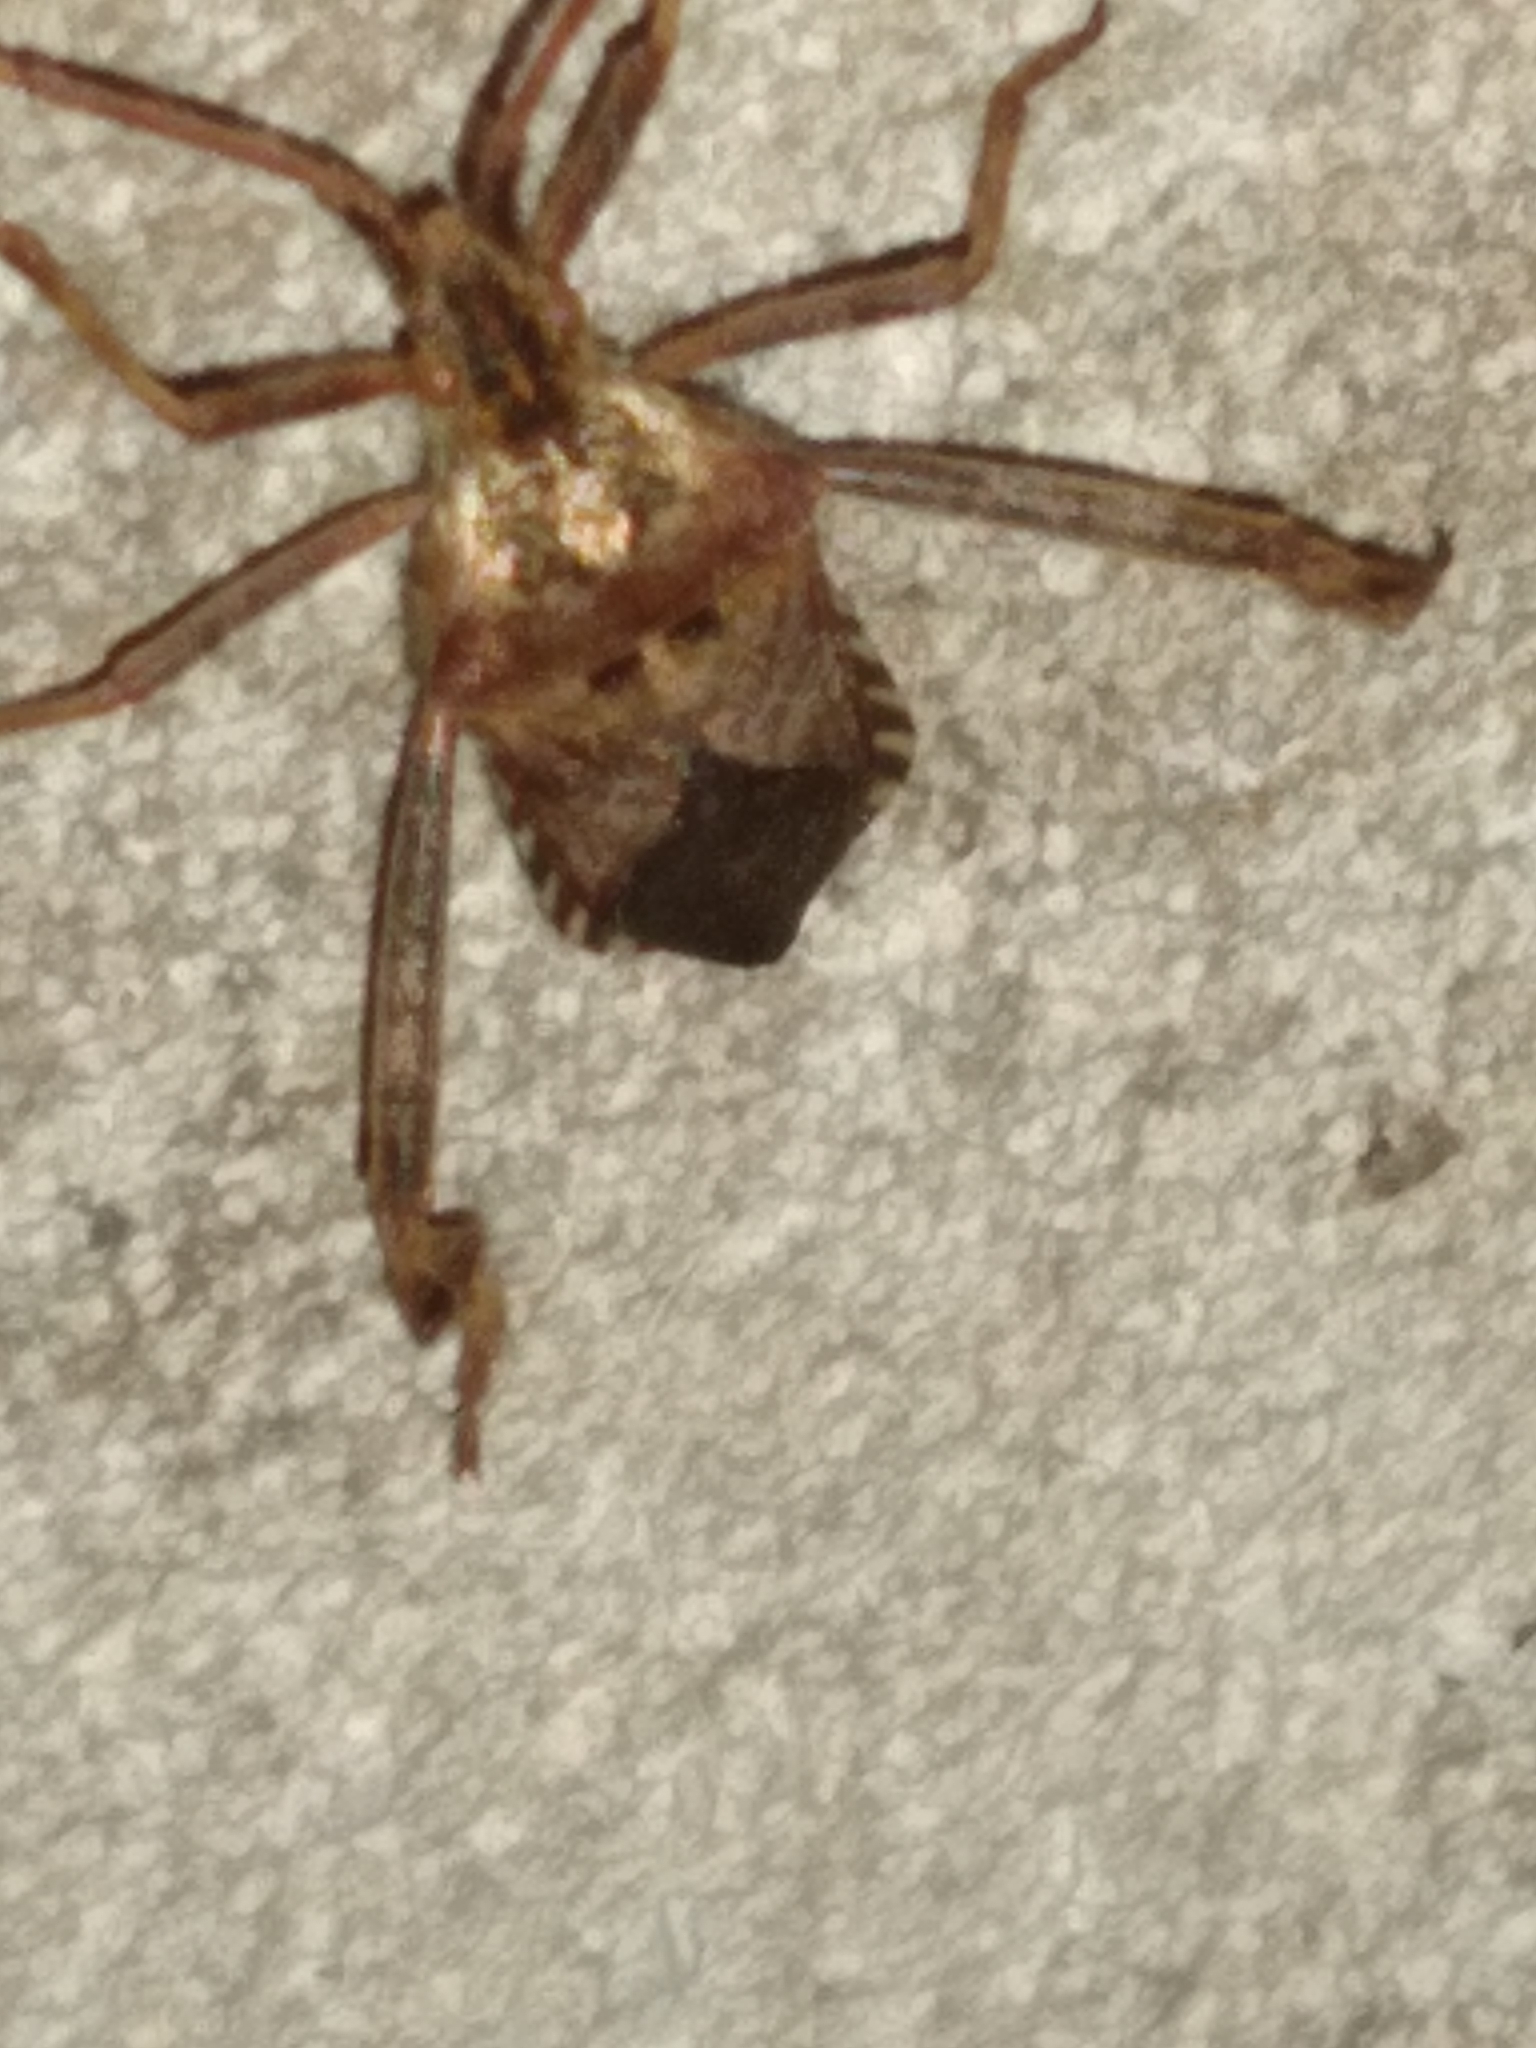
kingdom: Animalia
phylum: Arthropoda
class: Insecta
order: Hemiptera
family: Coreidae
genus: Leptoglossus
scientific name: Leptoglossus occidentalis
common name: Western conifer-seed bug
